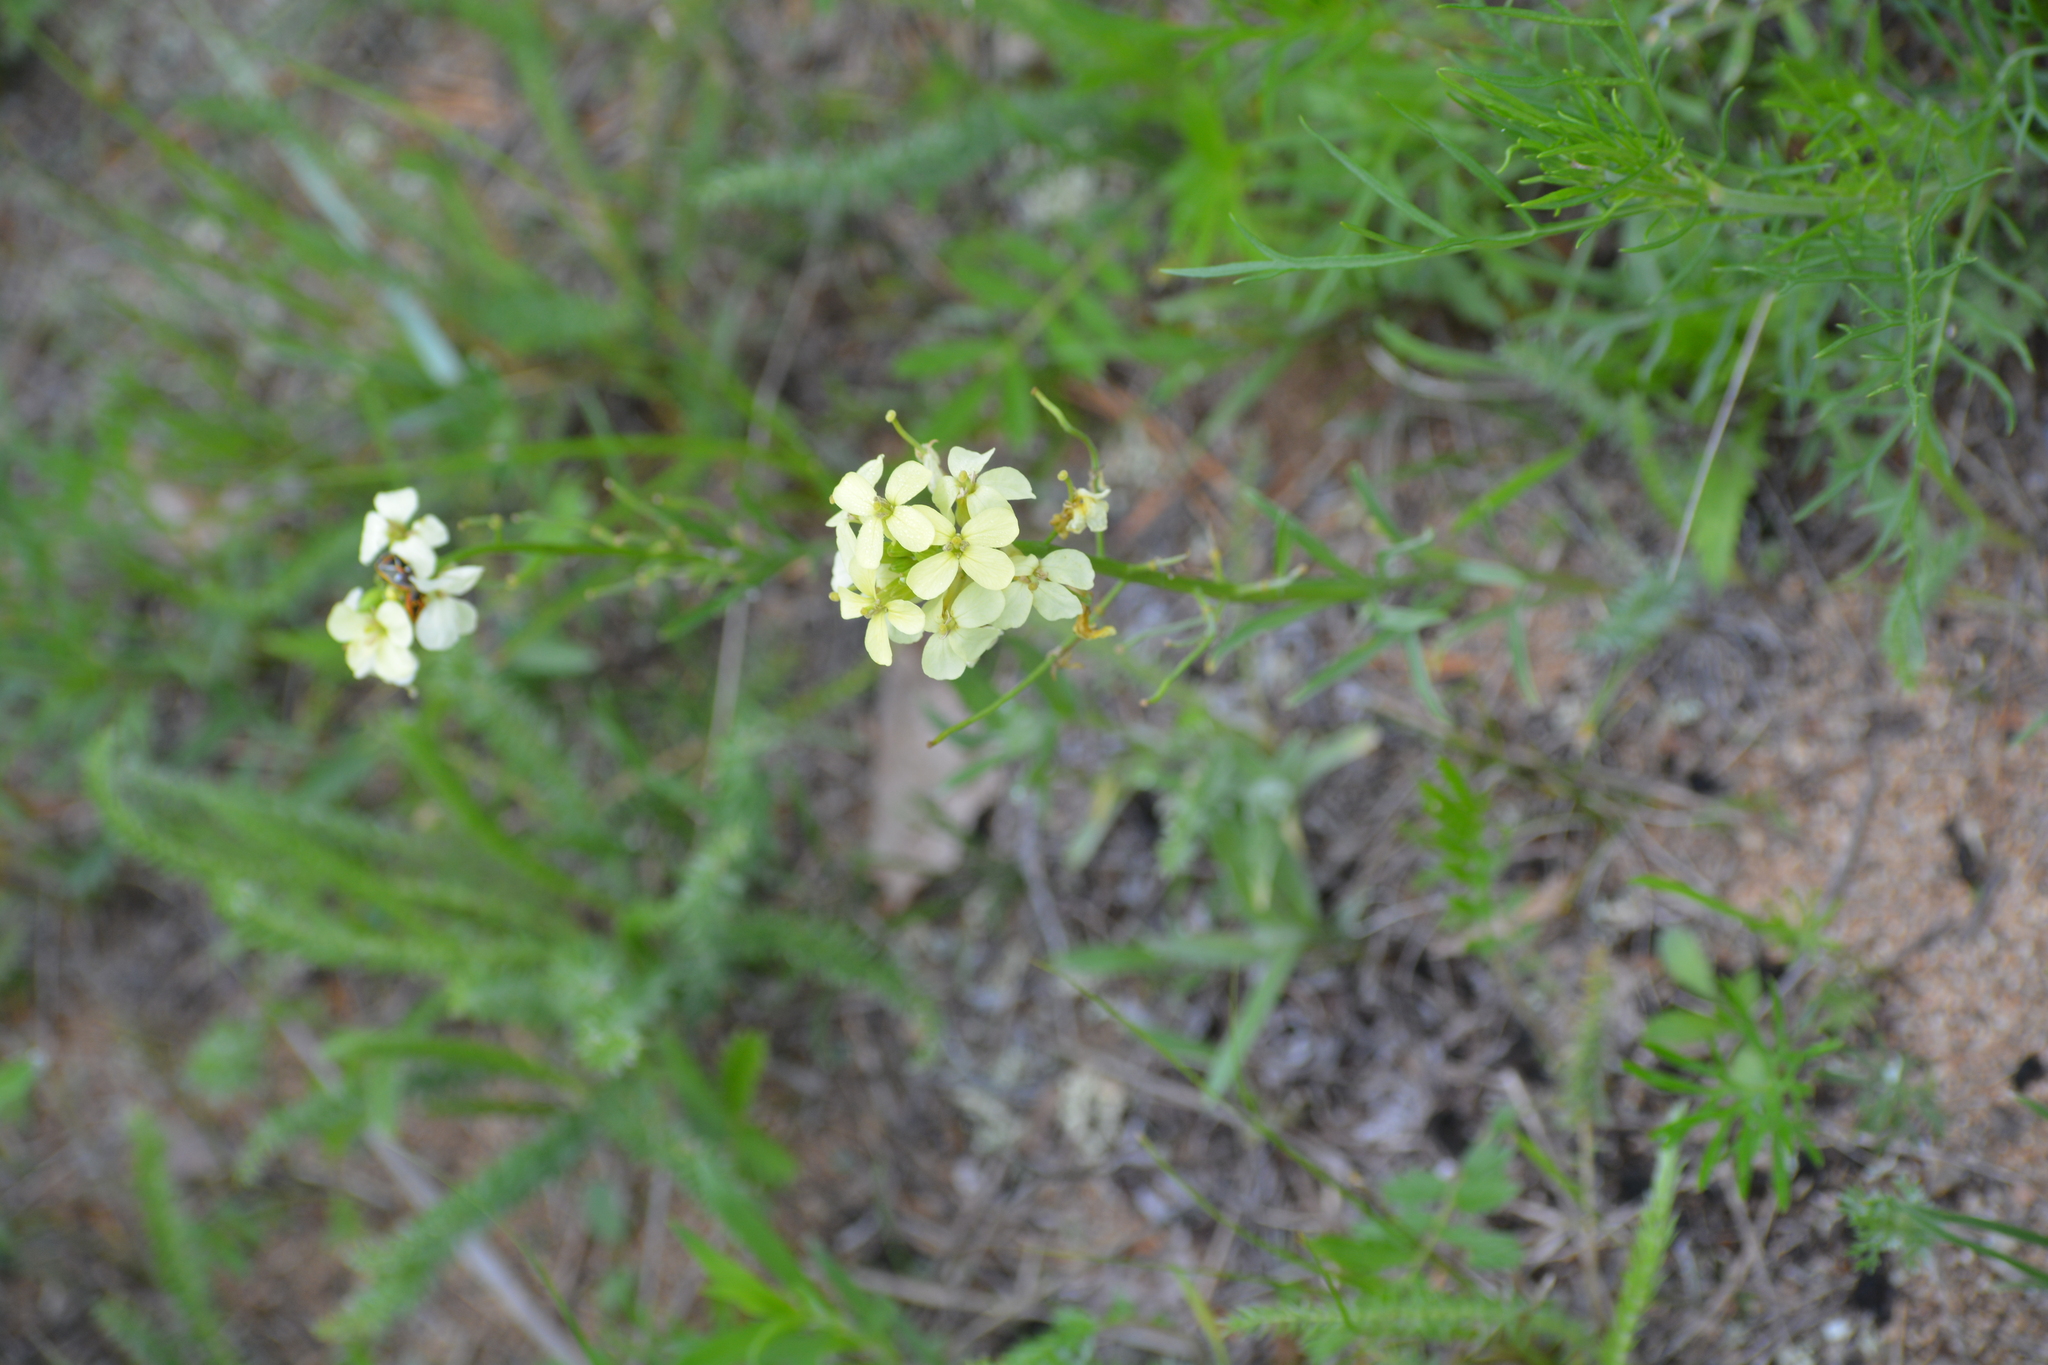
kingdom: Plantae
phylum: Tracheophyta
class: Magnoliopsida
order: Brassicales
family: Brassicaceae
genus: Erysimum
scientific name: Erysimum flavum
